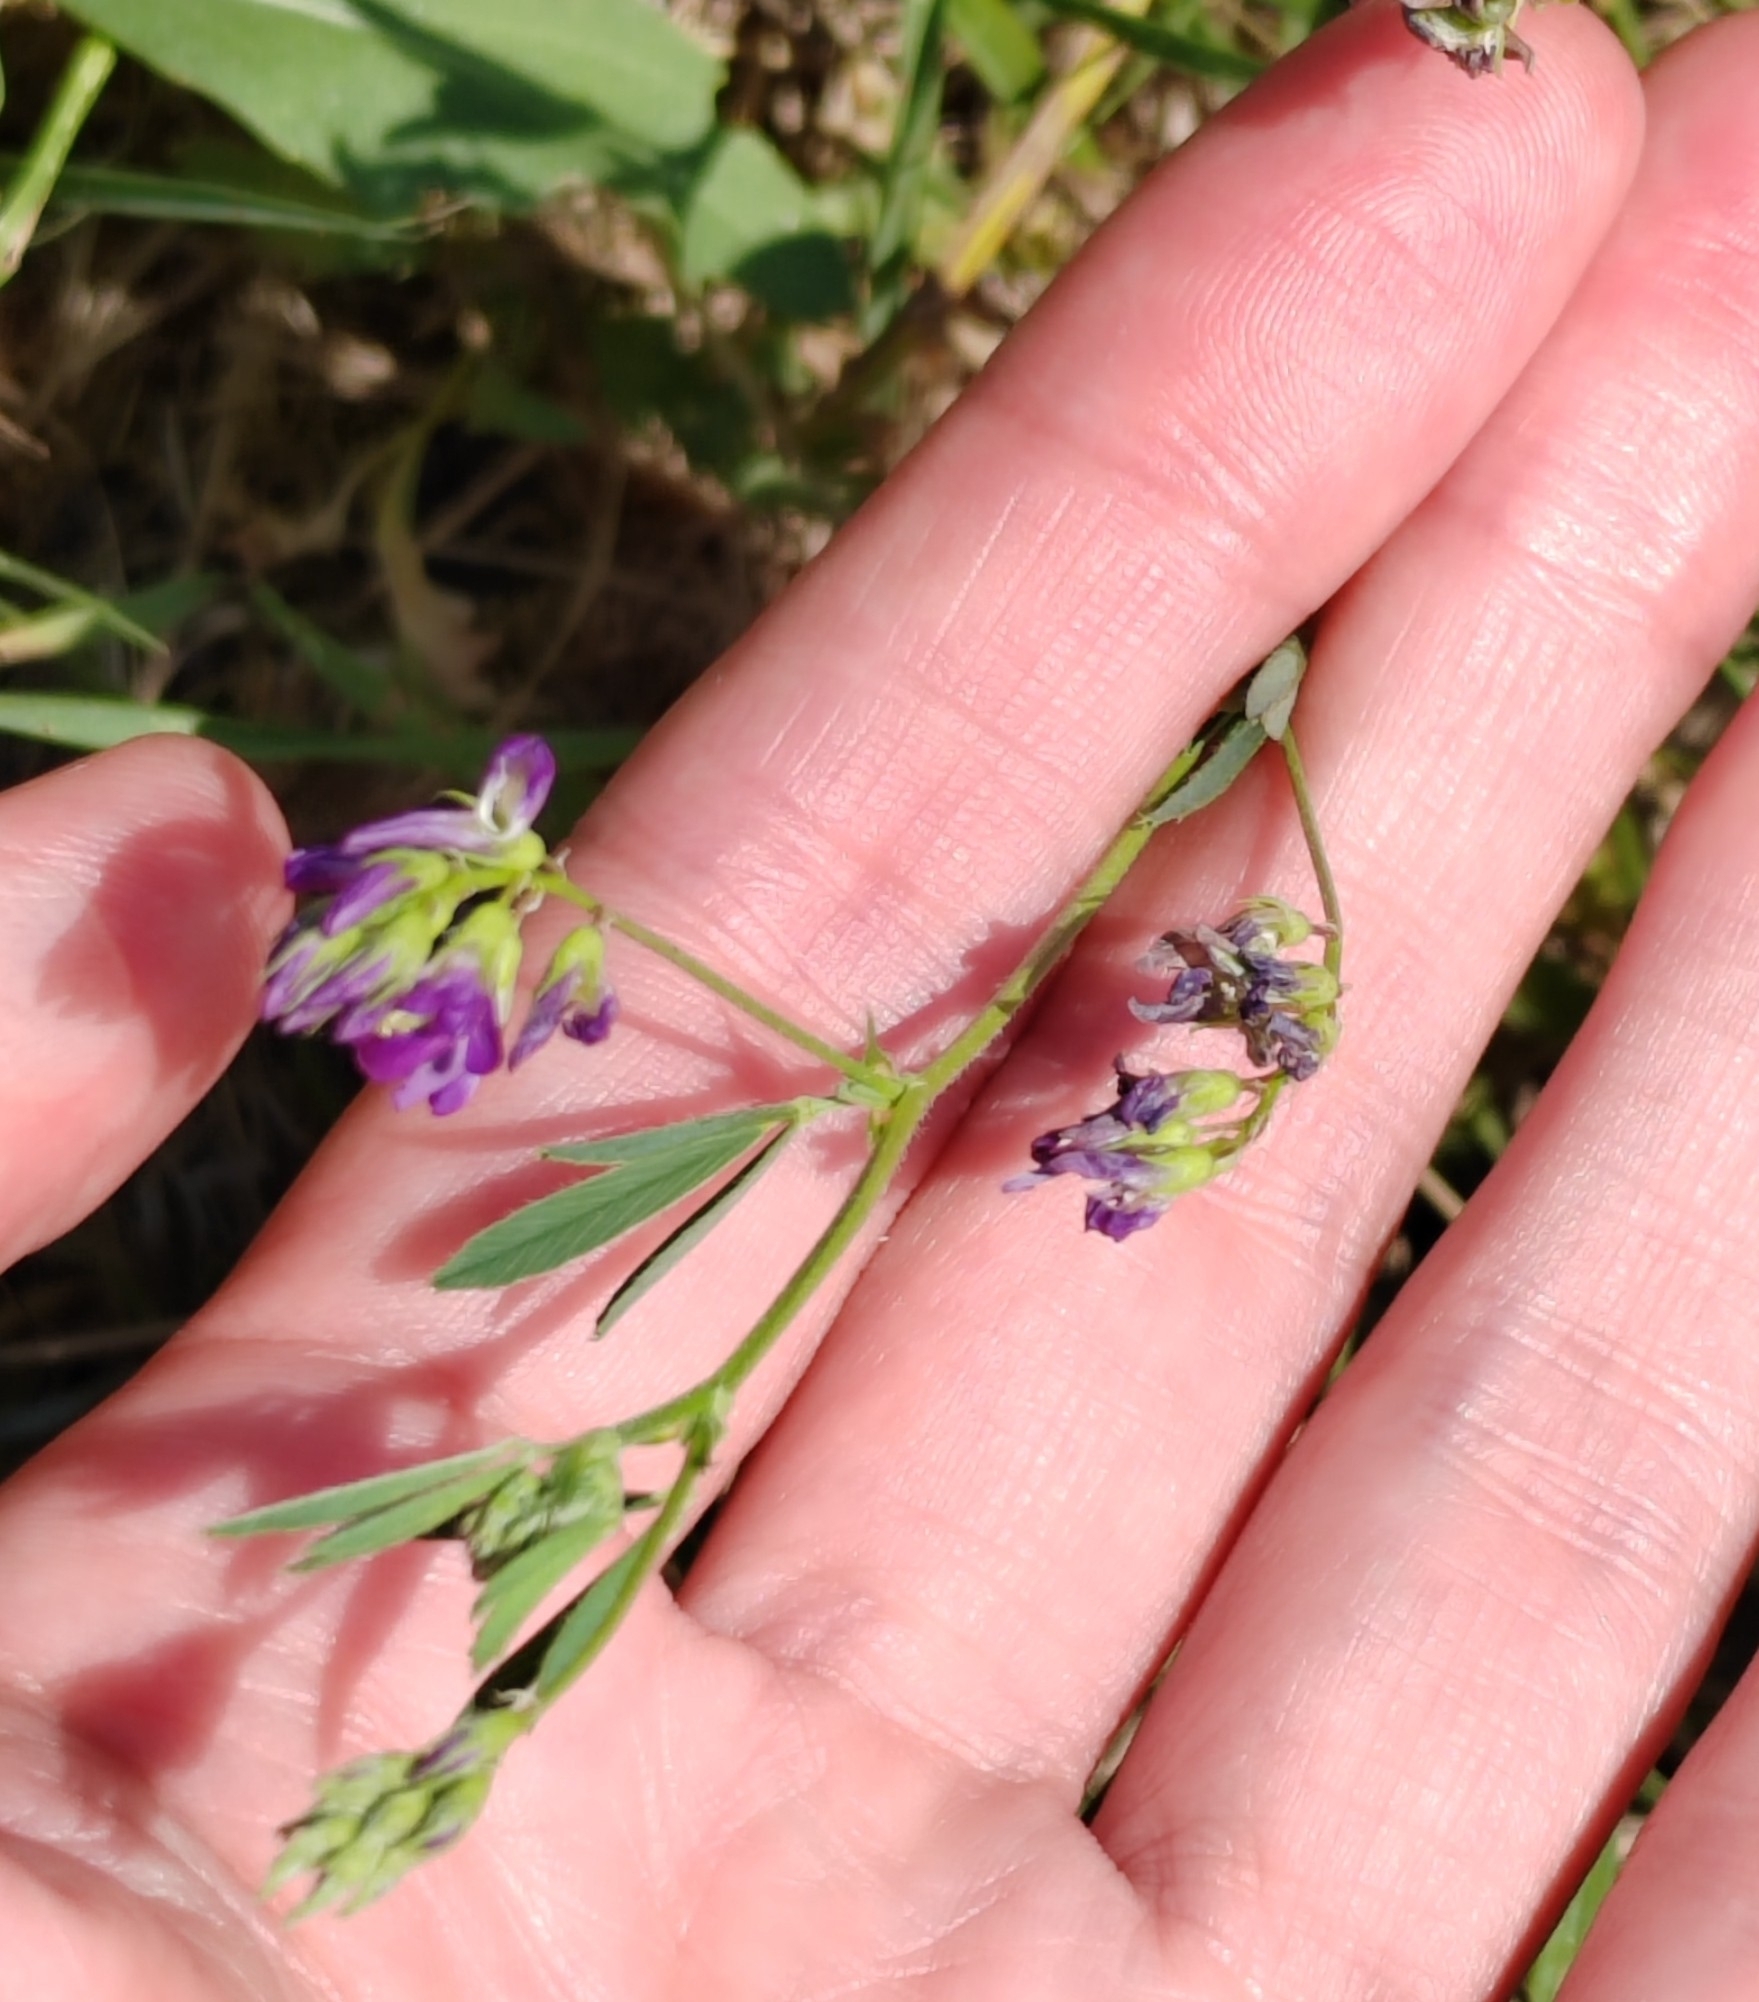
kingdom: Plantae
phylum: Tracheophyta
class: Magnoliopsida
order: Fabales
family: Fabaceae
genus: Medicago
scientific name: Medicago sativa
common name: Alfalfa
